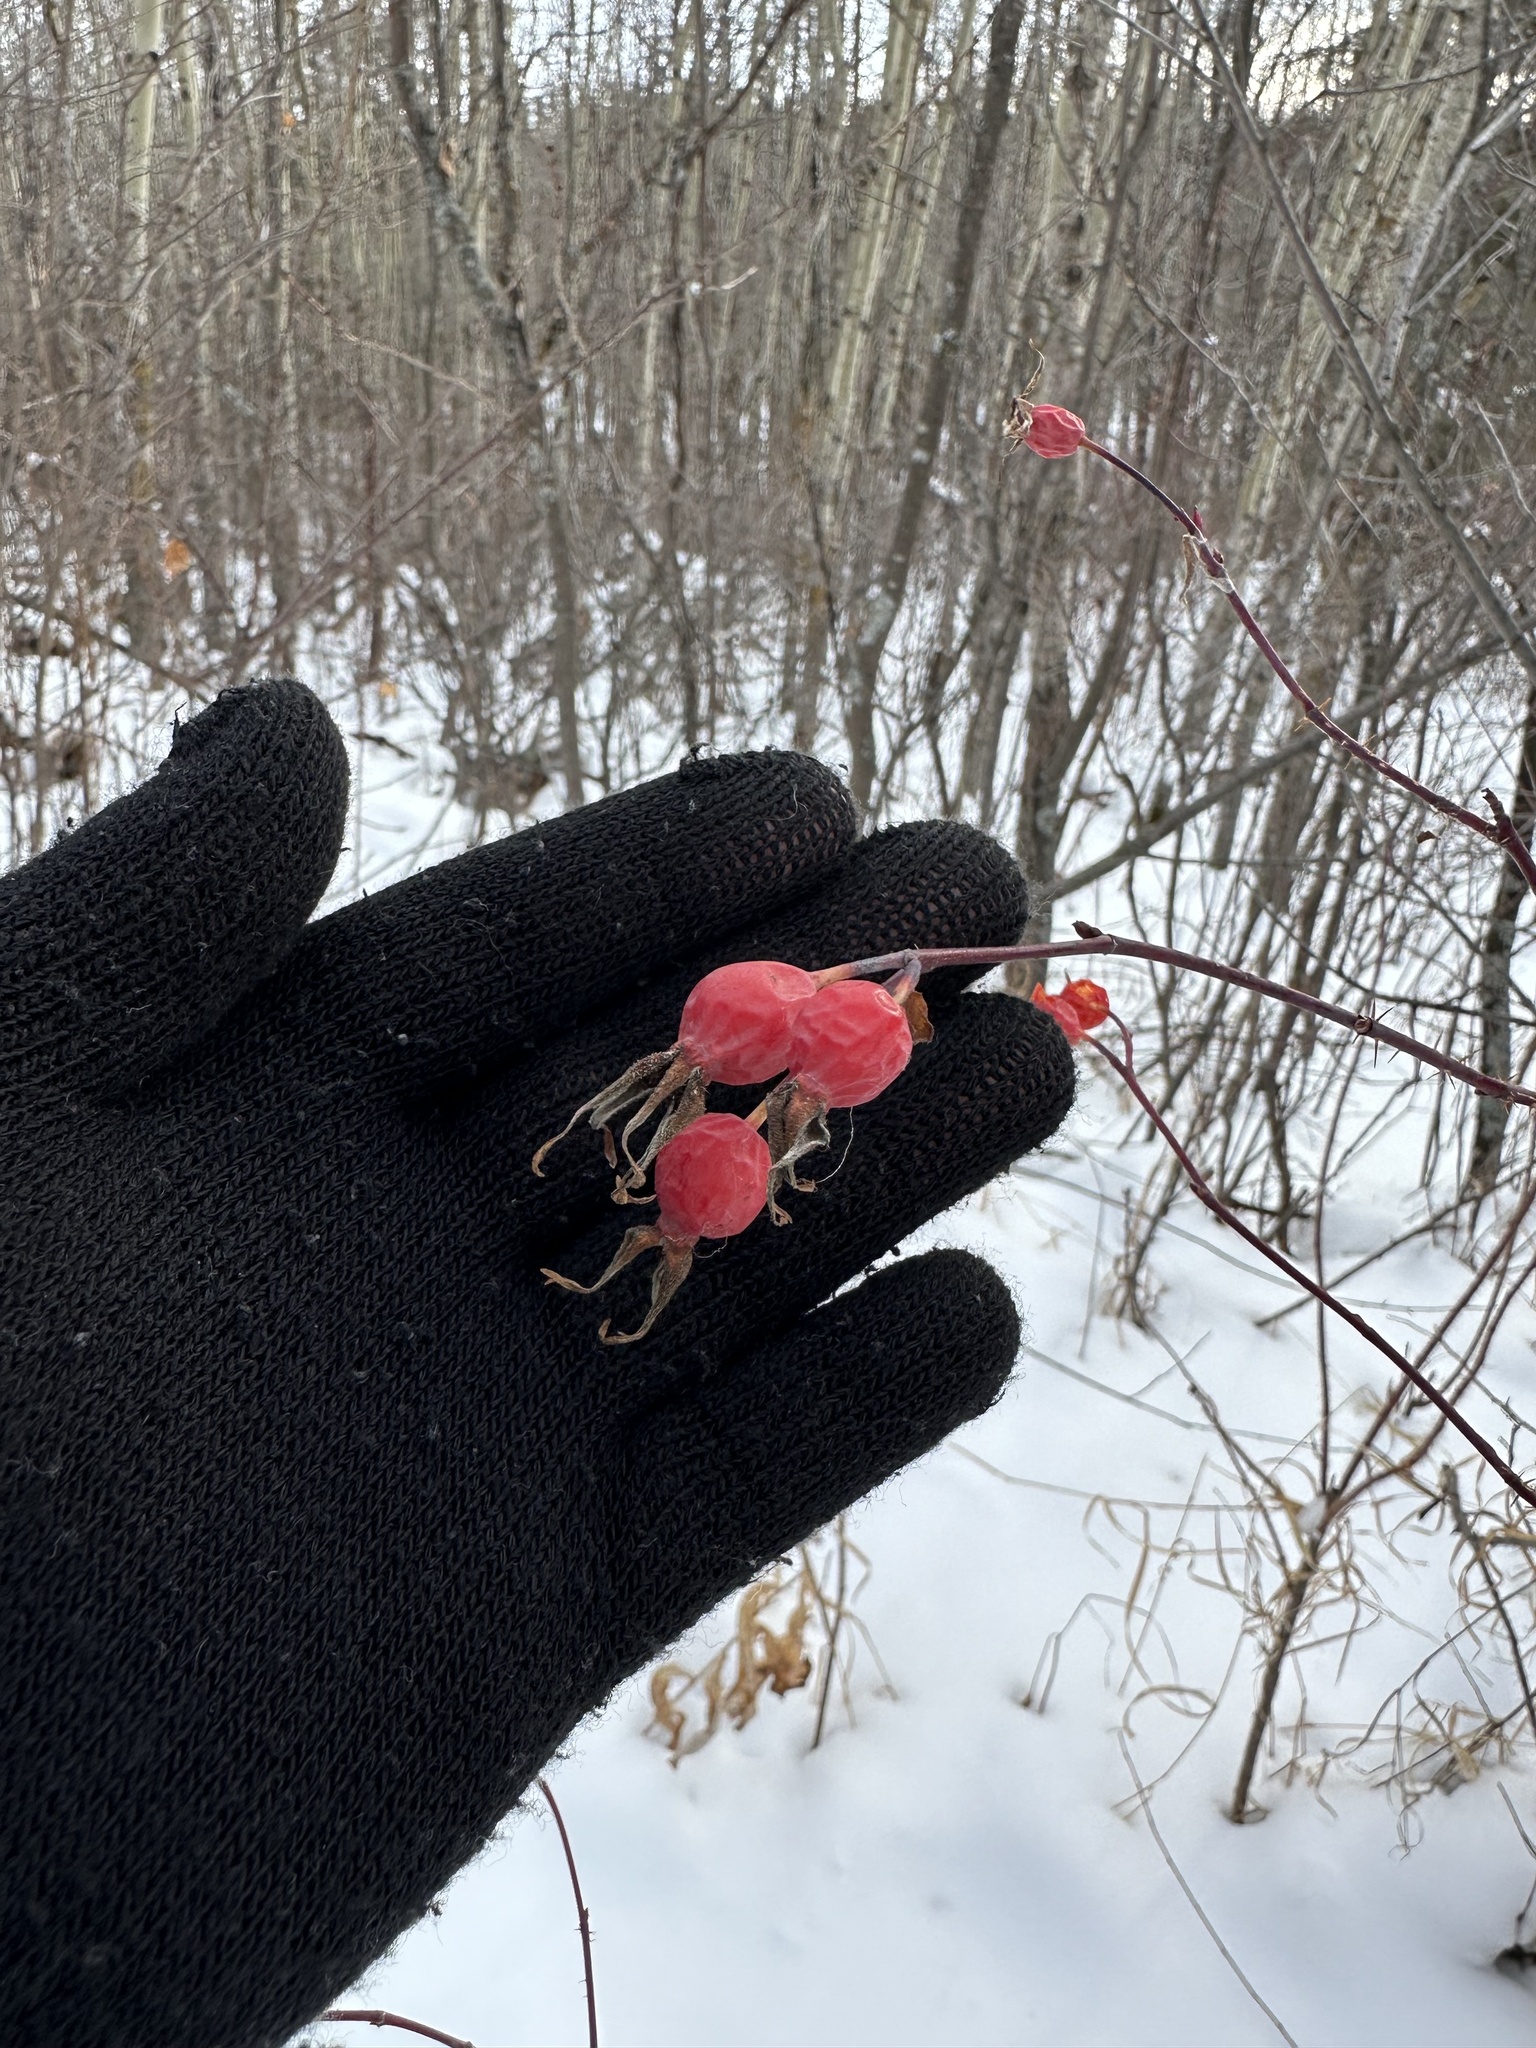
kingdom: Plantae
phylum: Tracheophyta
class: Magnoliopsida
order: Rosales
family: Rosaceae
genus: Rosa
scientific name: Rosa woodsii
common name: Woods's rose
